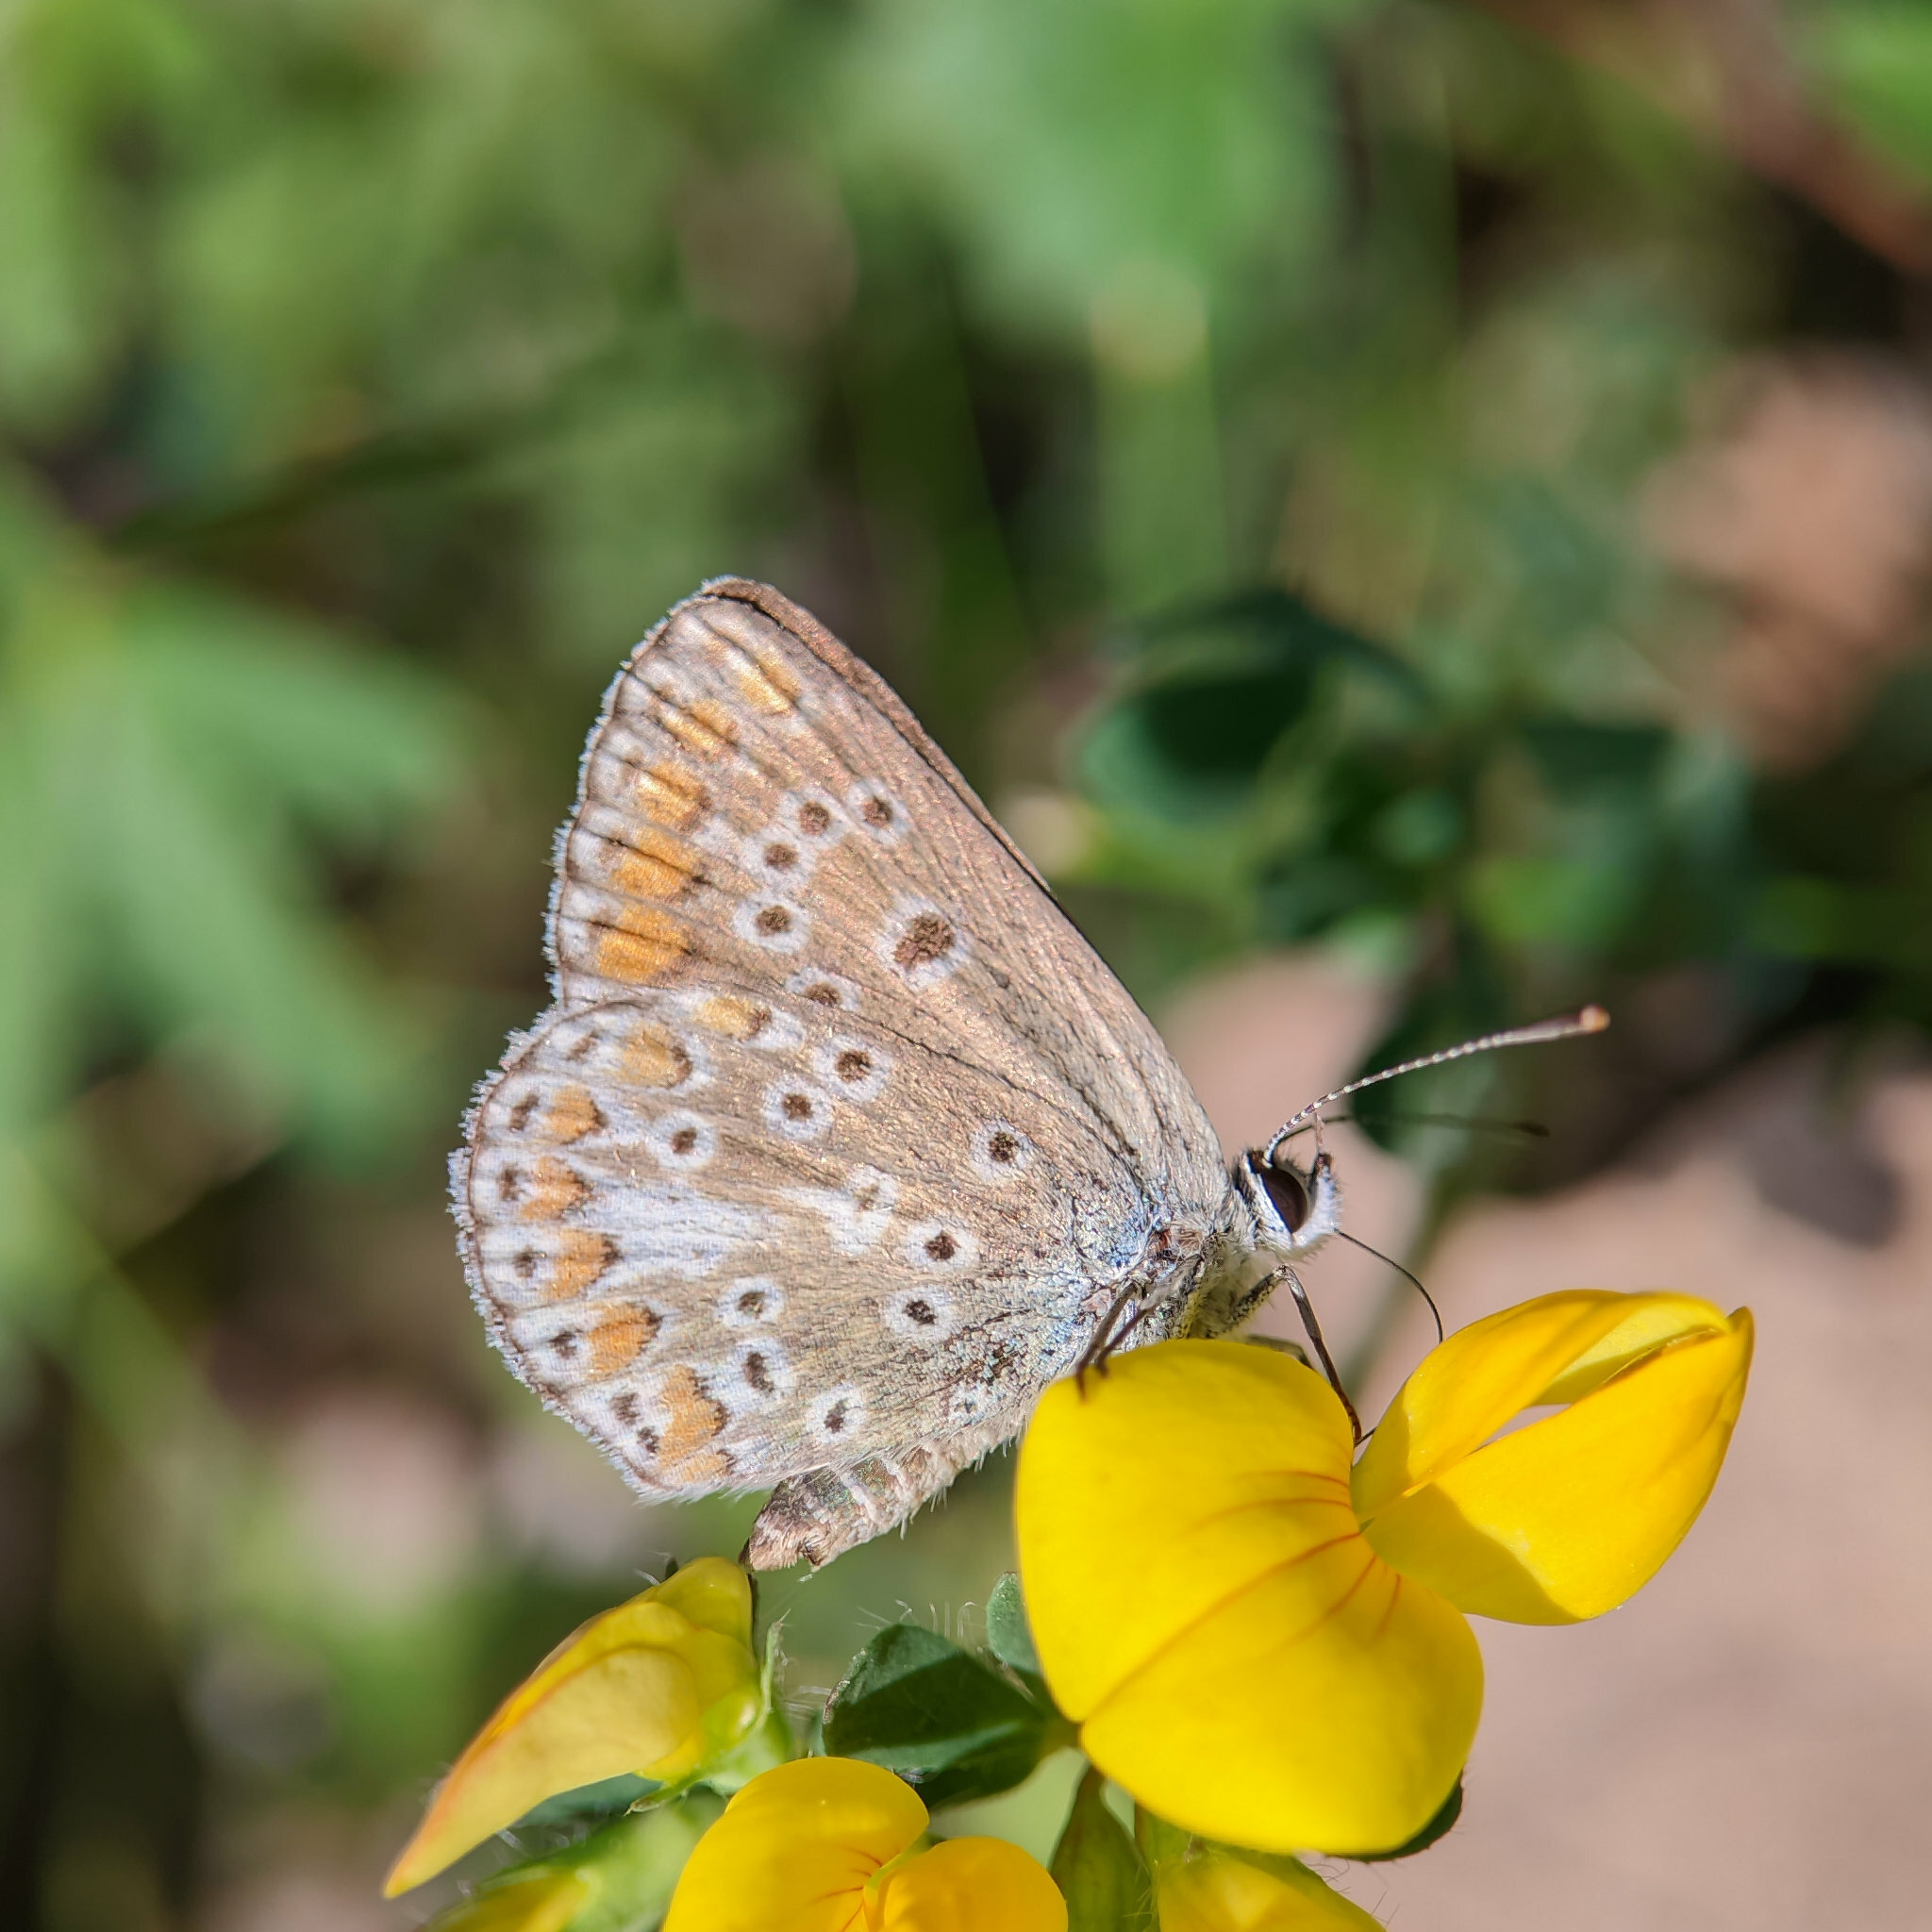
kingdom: Animalia
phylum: Arthropoda
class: Insecta
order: Lepidoptera
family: Lycaenidae
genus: Aricia
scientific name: Aricia agestis
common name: Brown argus
